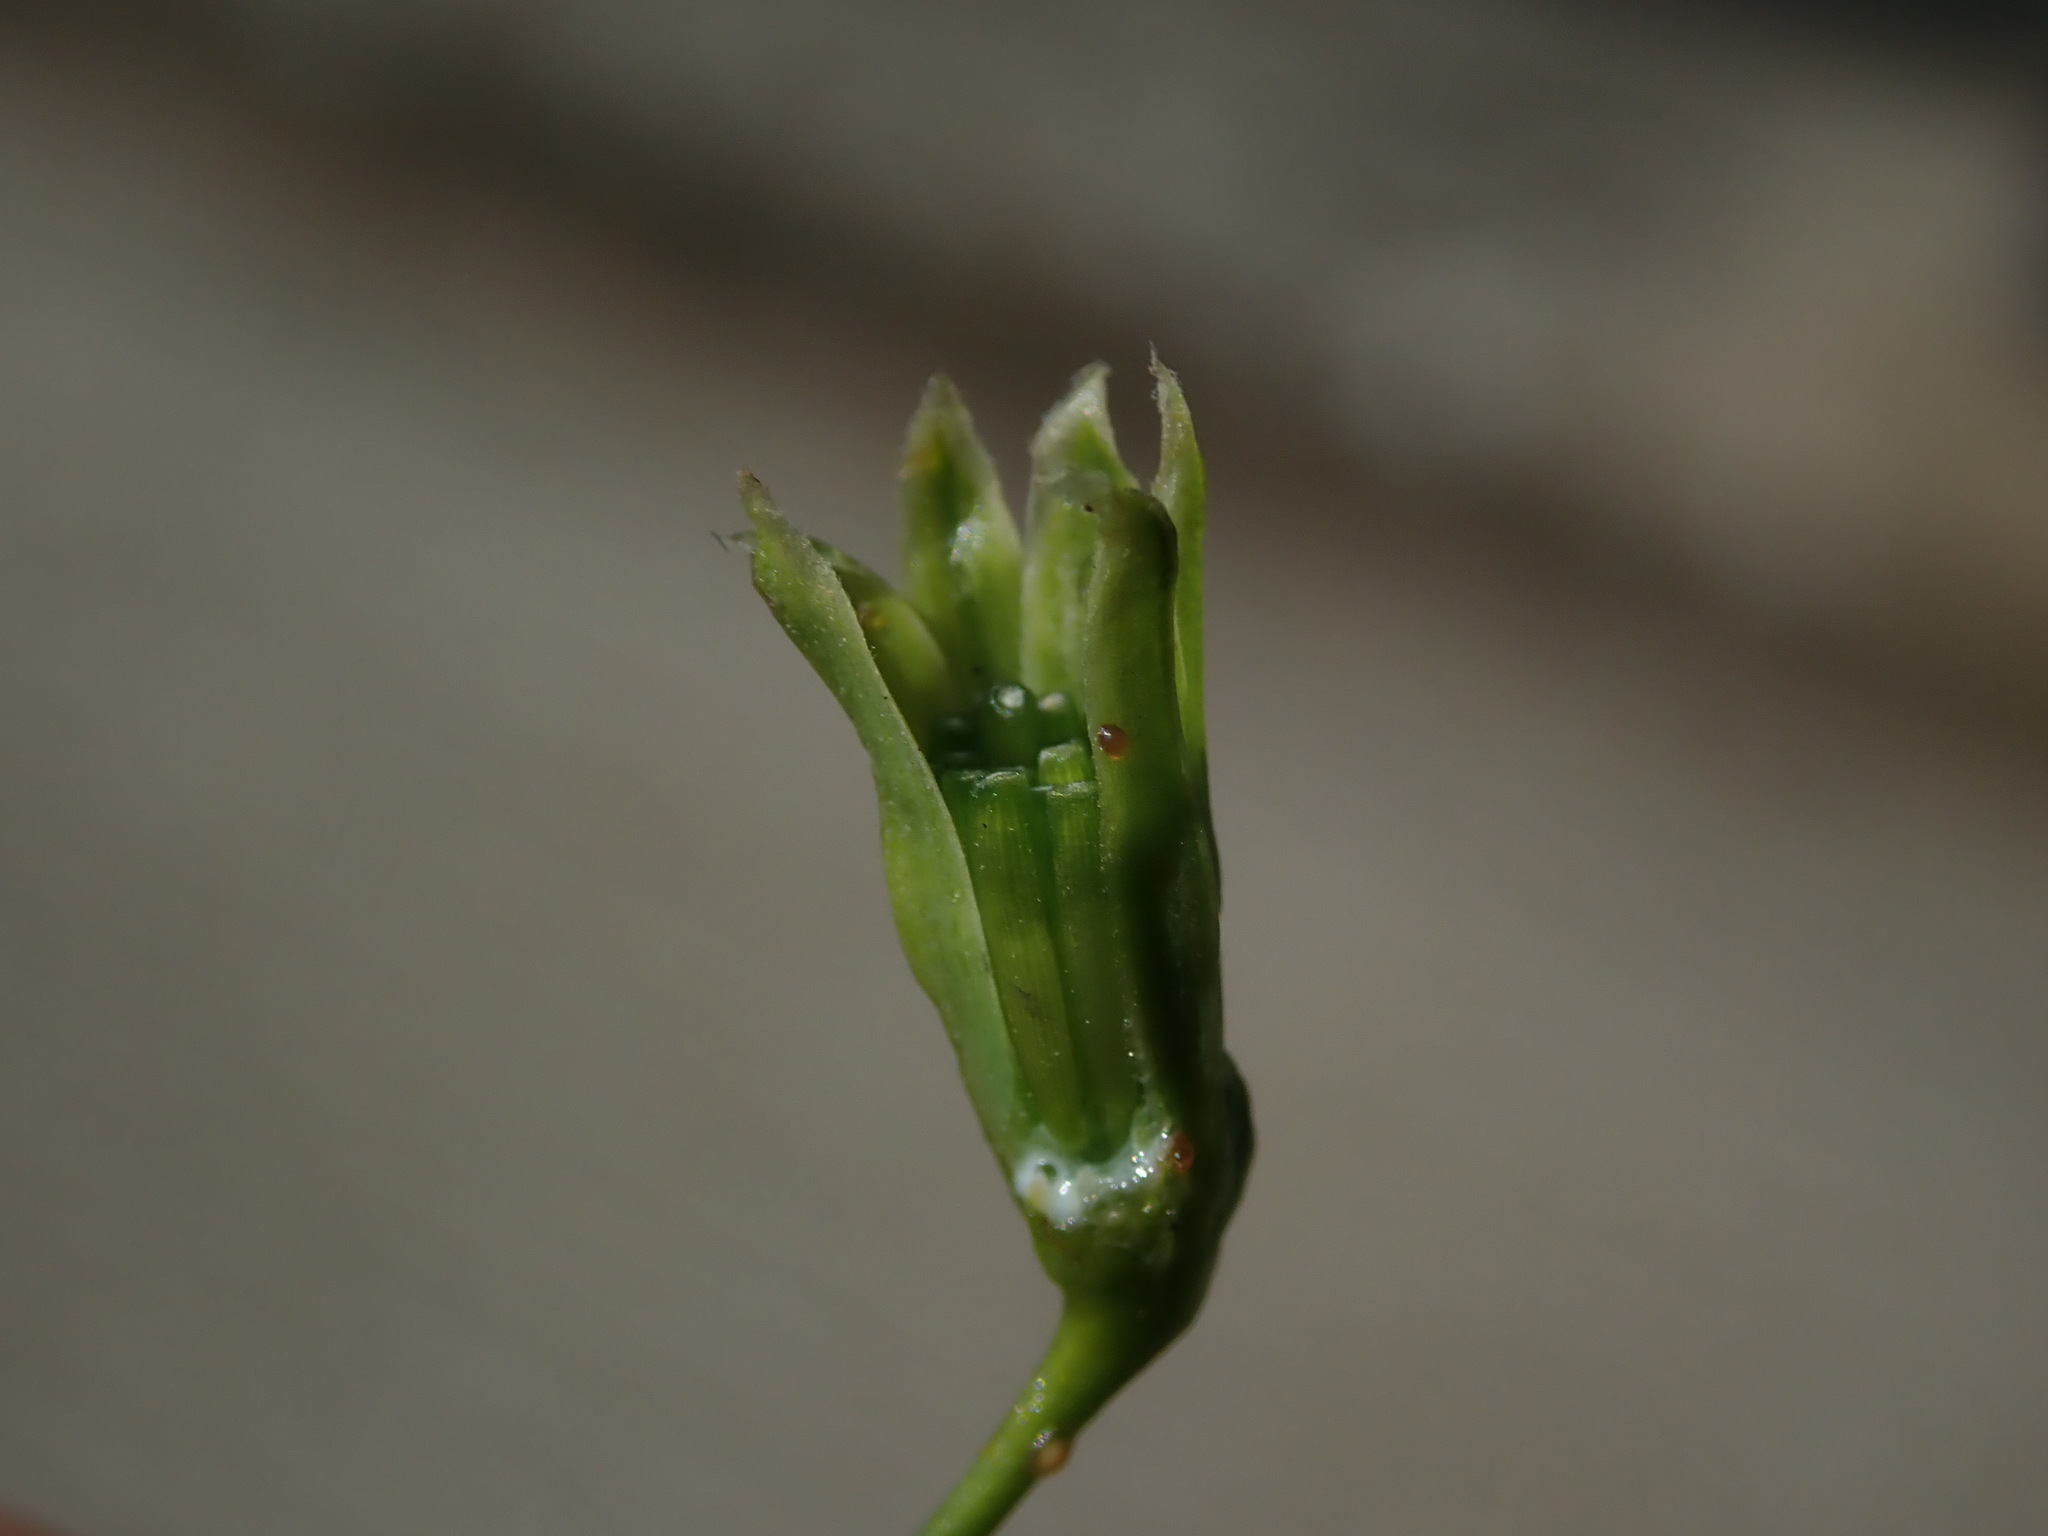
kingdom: Plantae
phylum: Tracheophyta
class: Magnoliopsida
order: Asterales
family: Asteraceae
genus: Lapsana
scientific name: Lapsana communis
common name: Nipplewort
